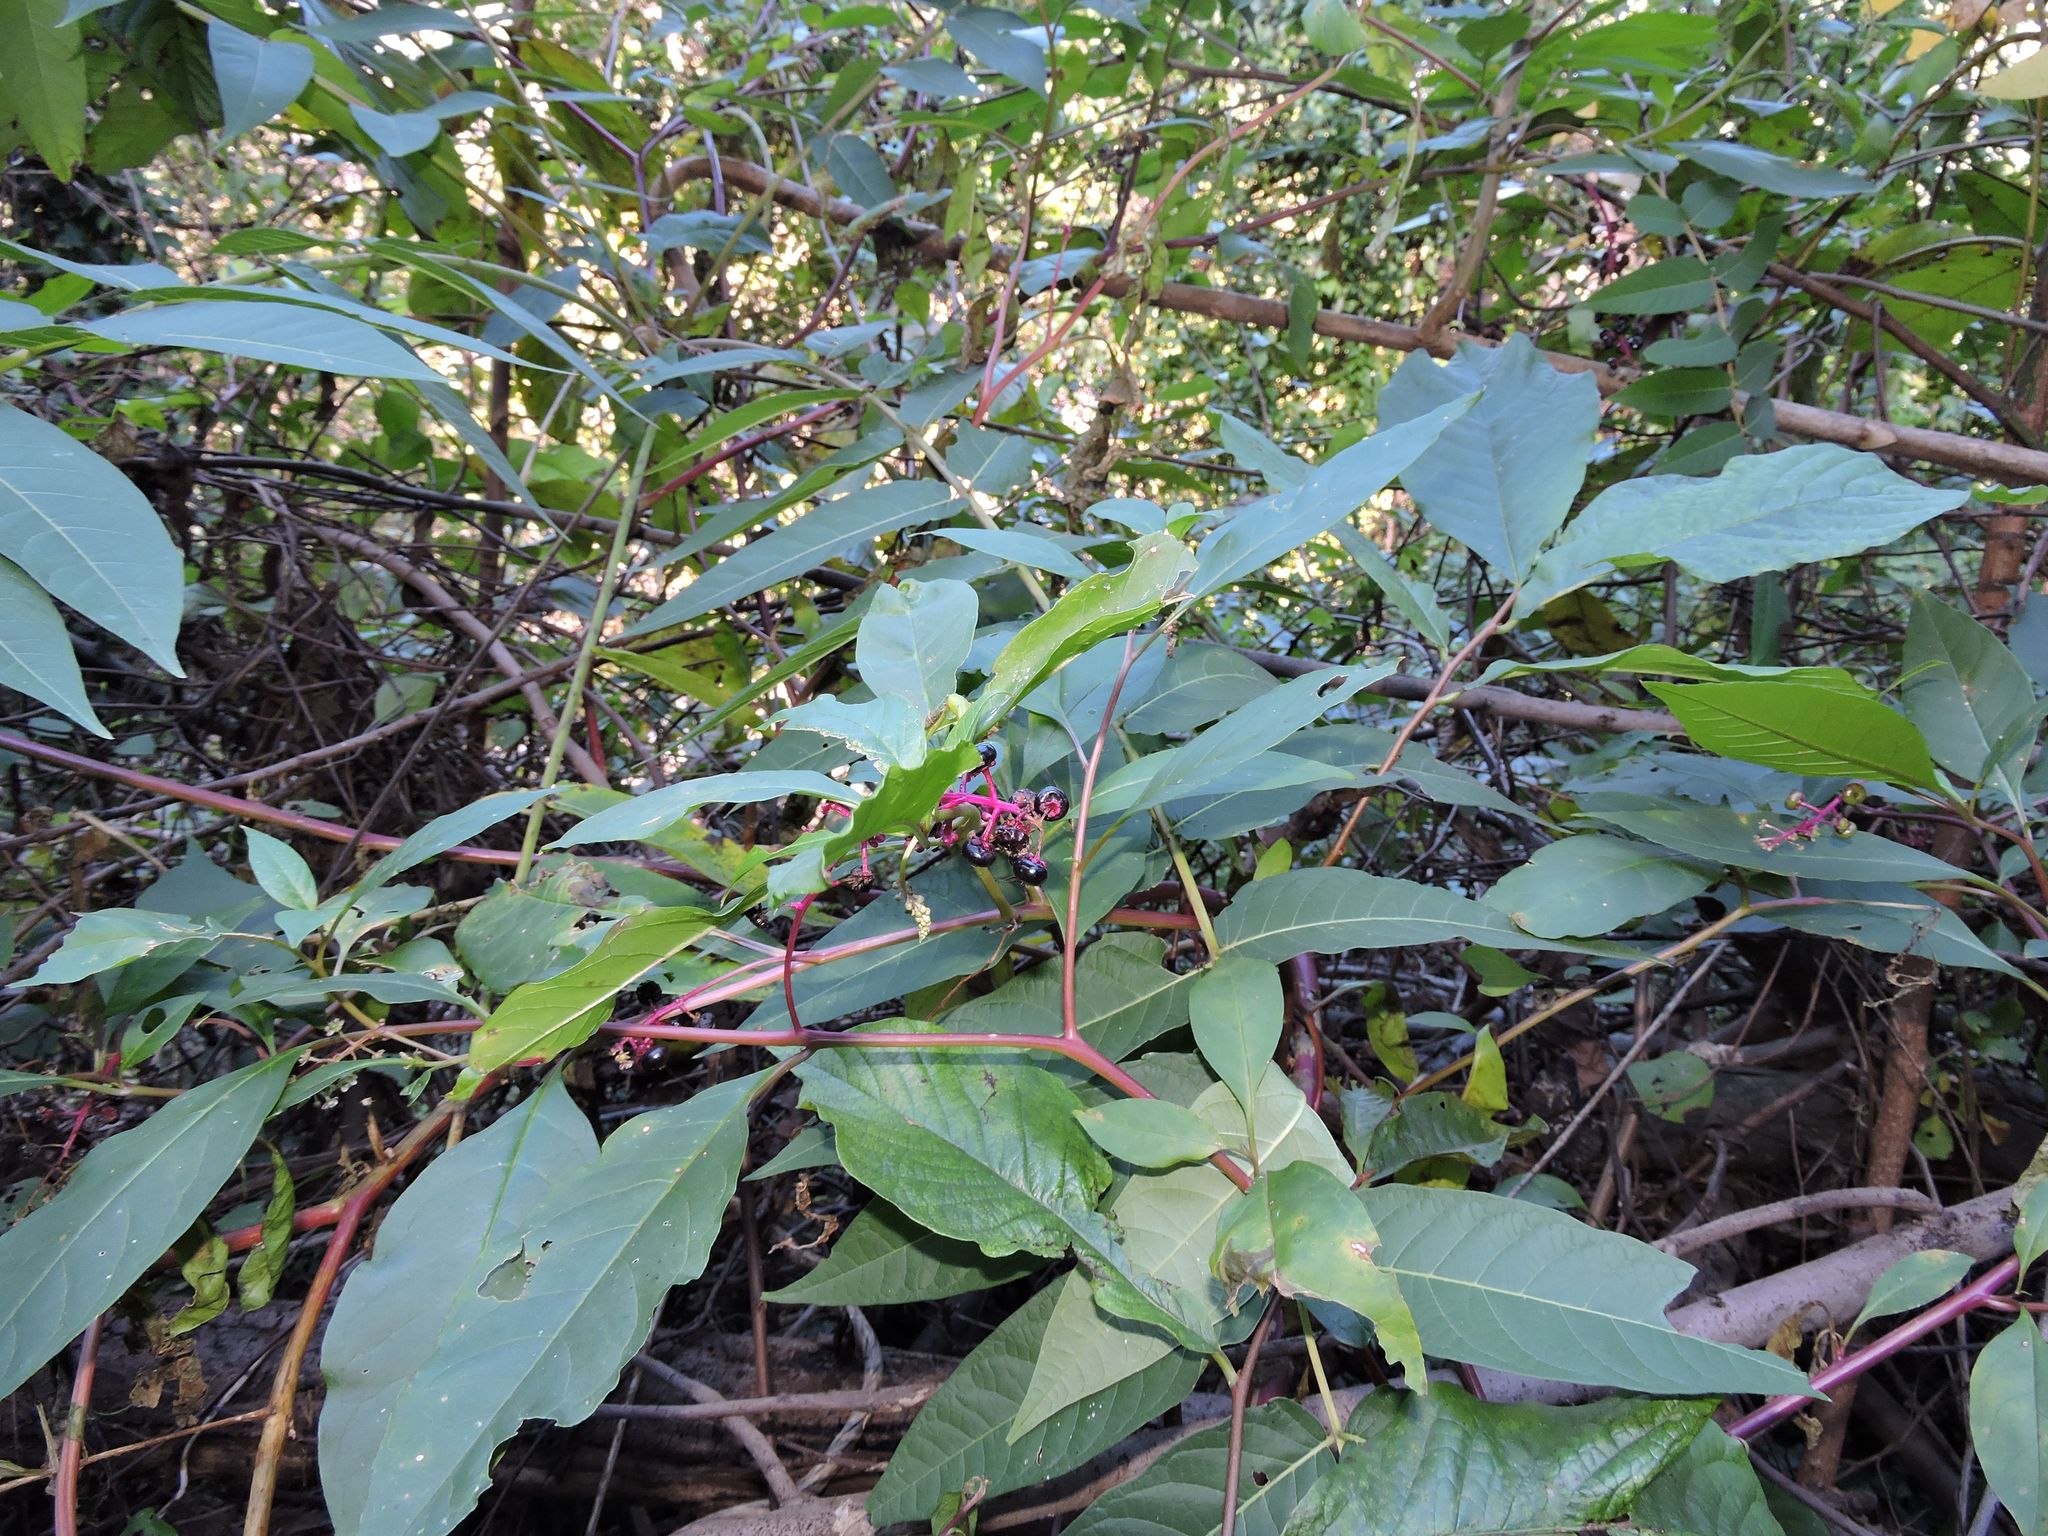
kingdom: Plantae
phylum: Tracheophyta
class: Magnoliopsida
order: Caryophyllales
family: Phytolaccaceae
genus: Phytolacca
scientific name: Phytolacca americana
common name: American pokeweed
